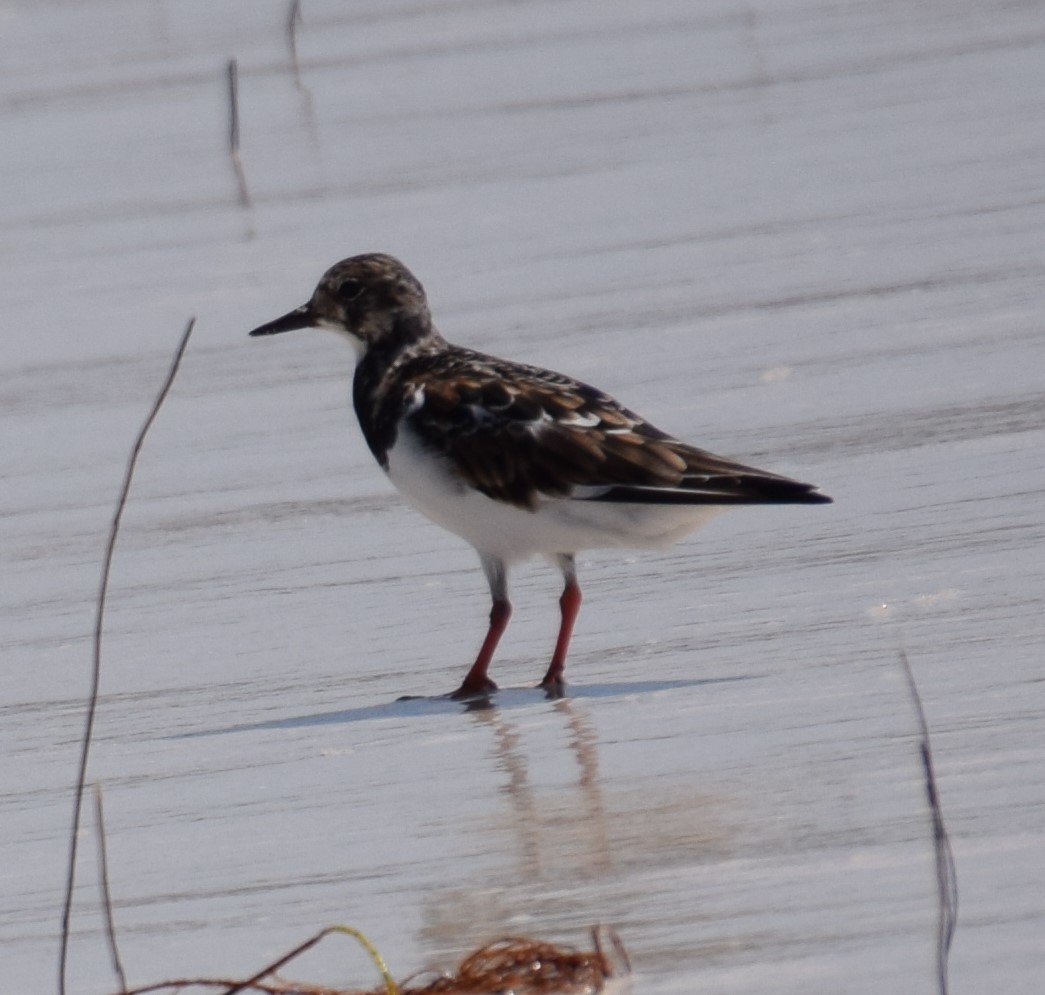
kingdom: Animalia
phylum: Chordata
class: Aves
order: Charadriiformes
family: Scolopacidae
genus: Arenaria
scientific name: Arenaria interpres
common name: Ruddy turnstone
